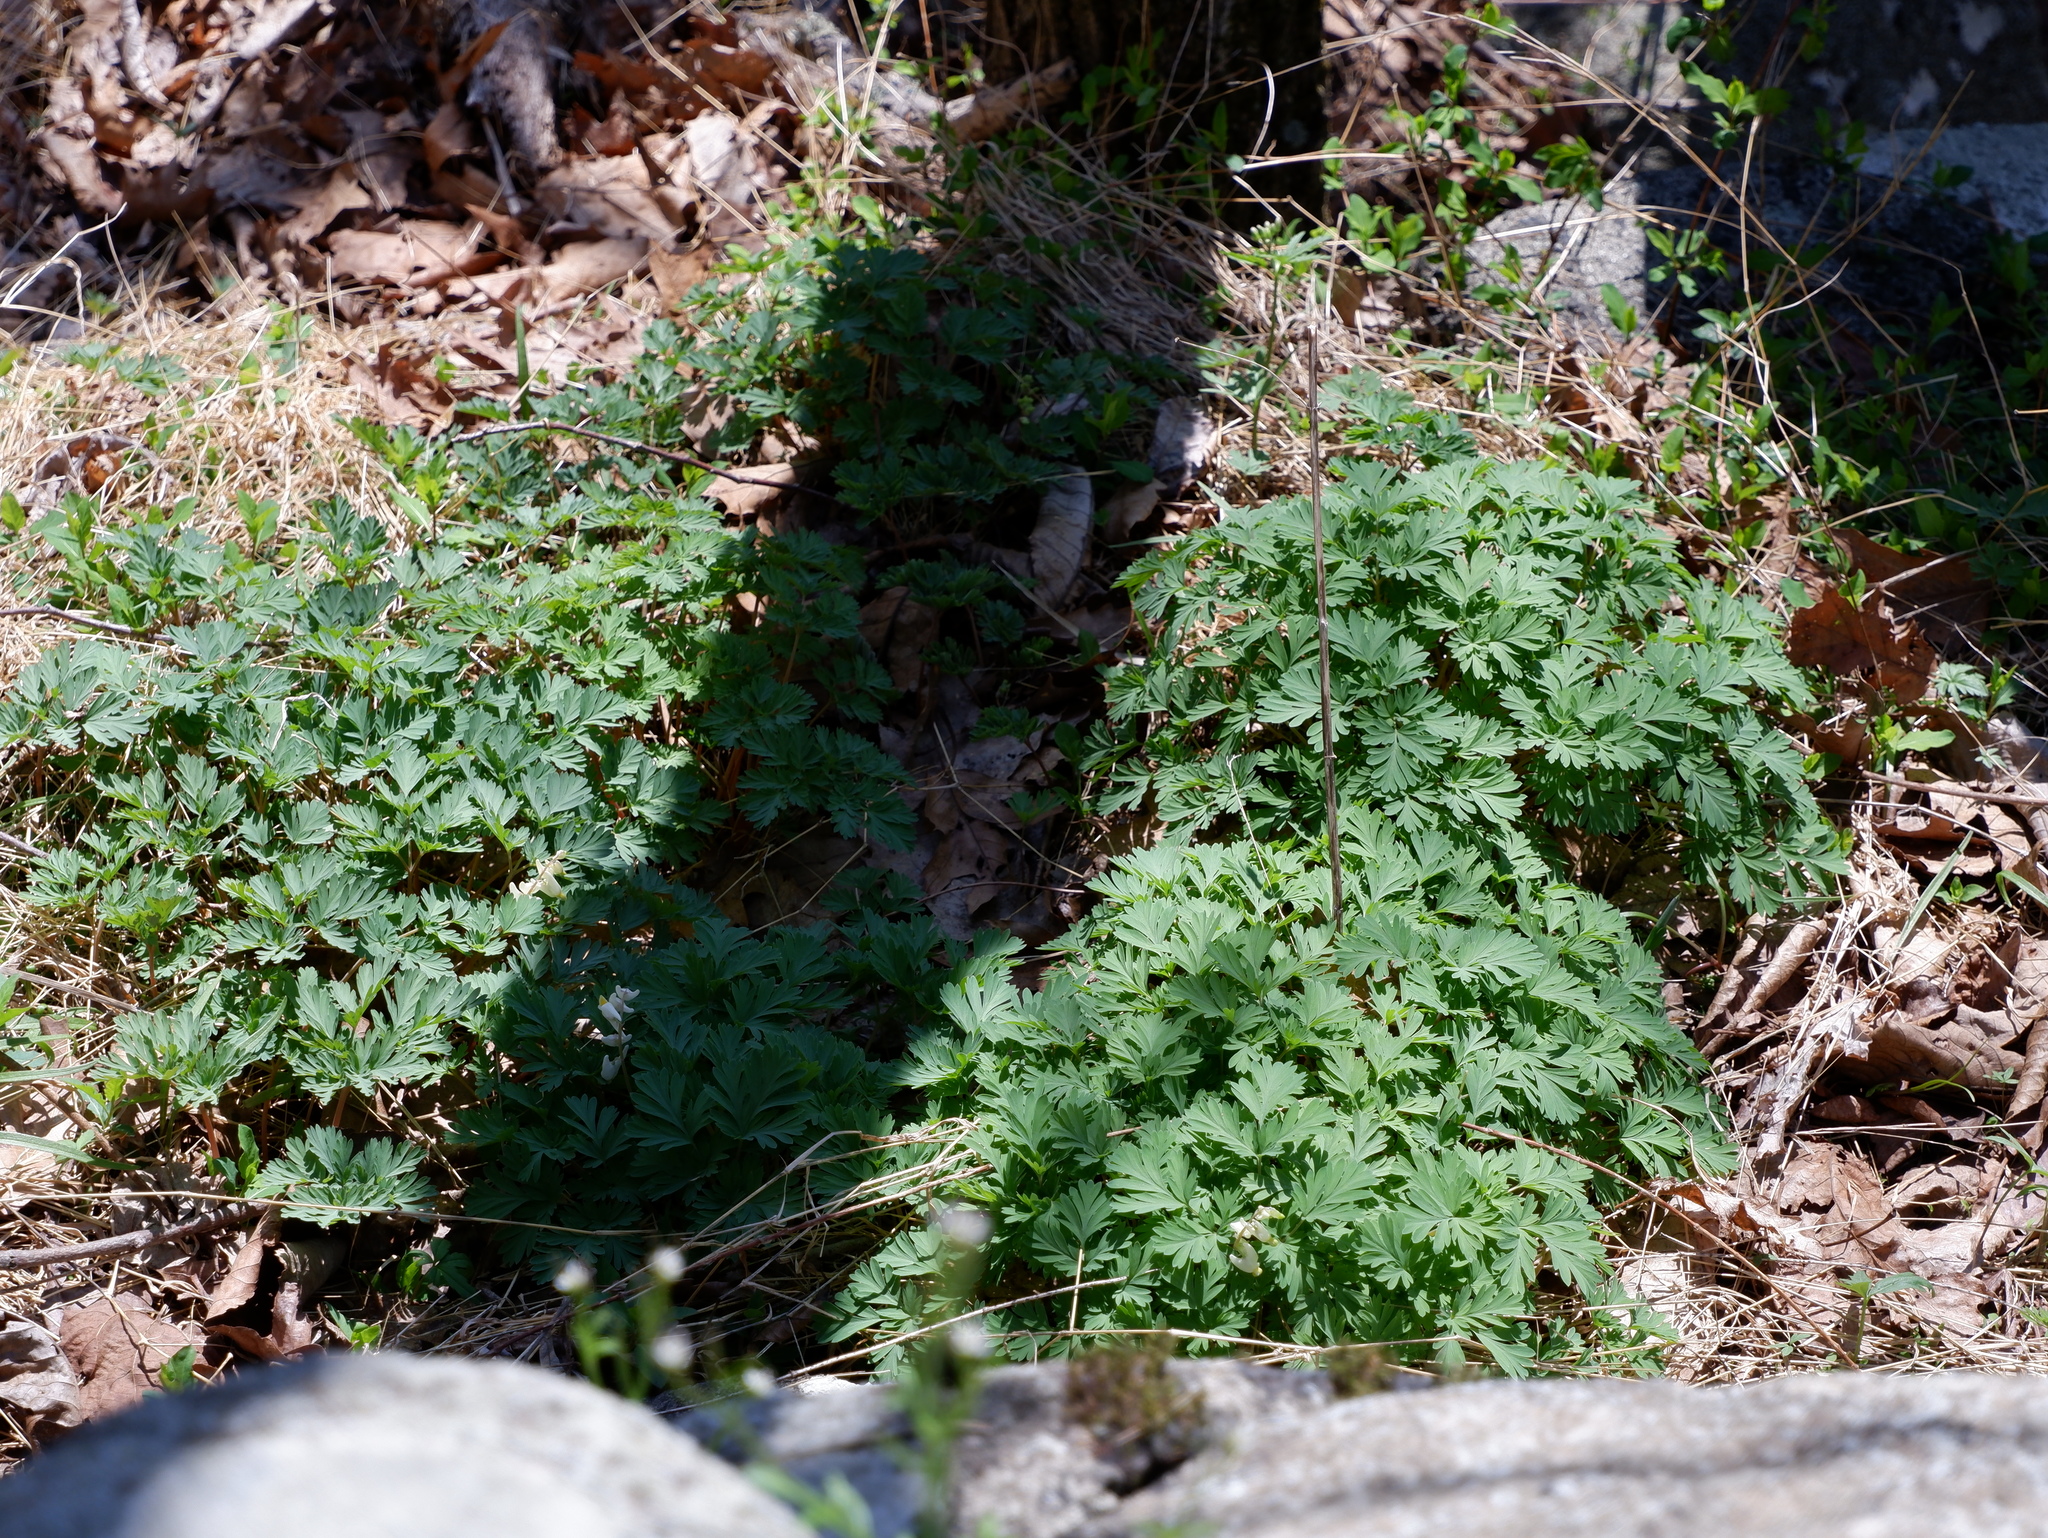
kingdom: Plantae
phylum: Tracheophyta
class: Magnoliopsida
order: Ranunculales
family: Papaveraceae
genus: Dicentra
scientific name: Dicentra cucullaria
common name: Dutchman's breeches
